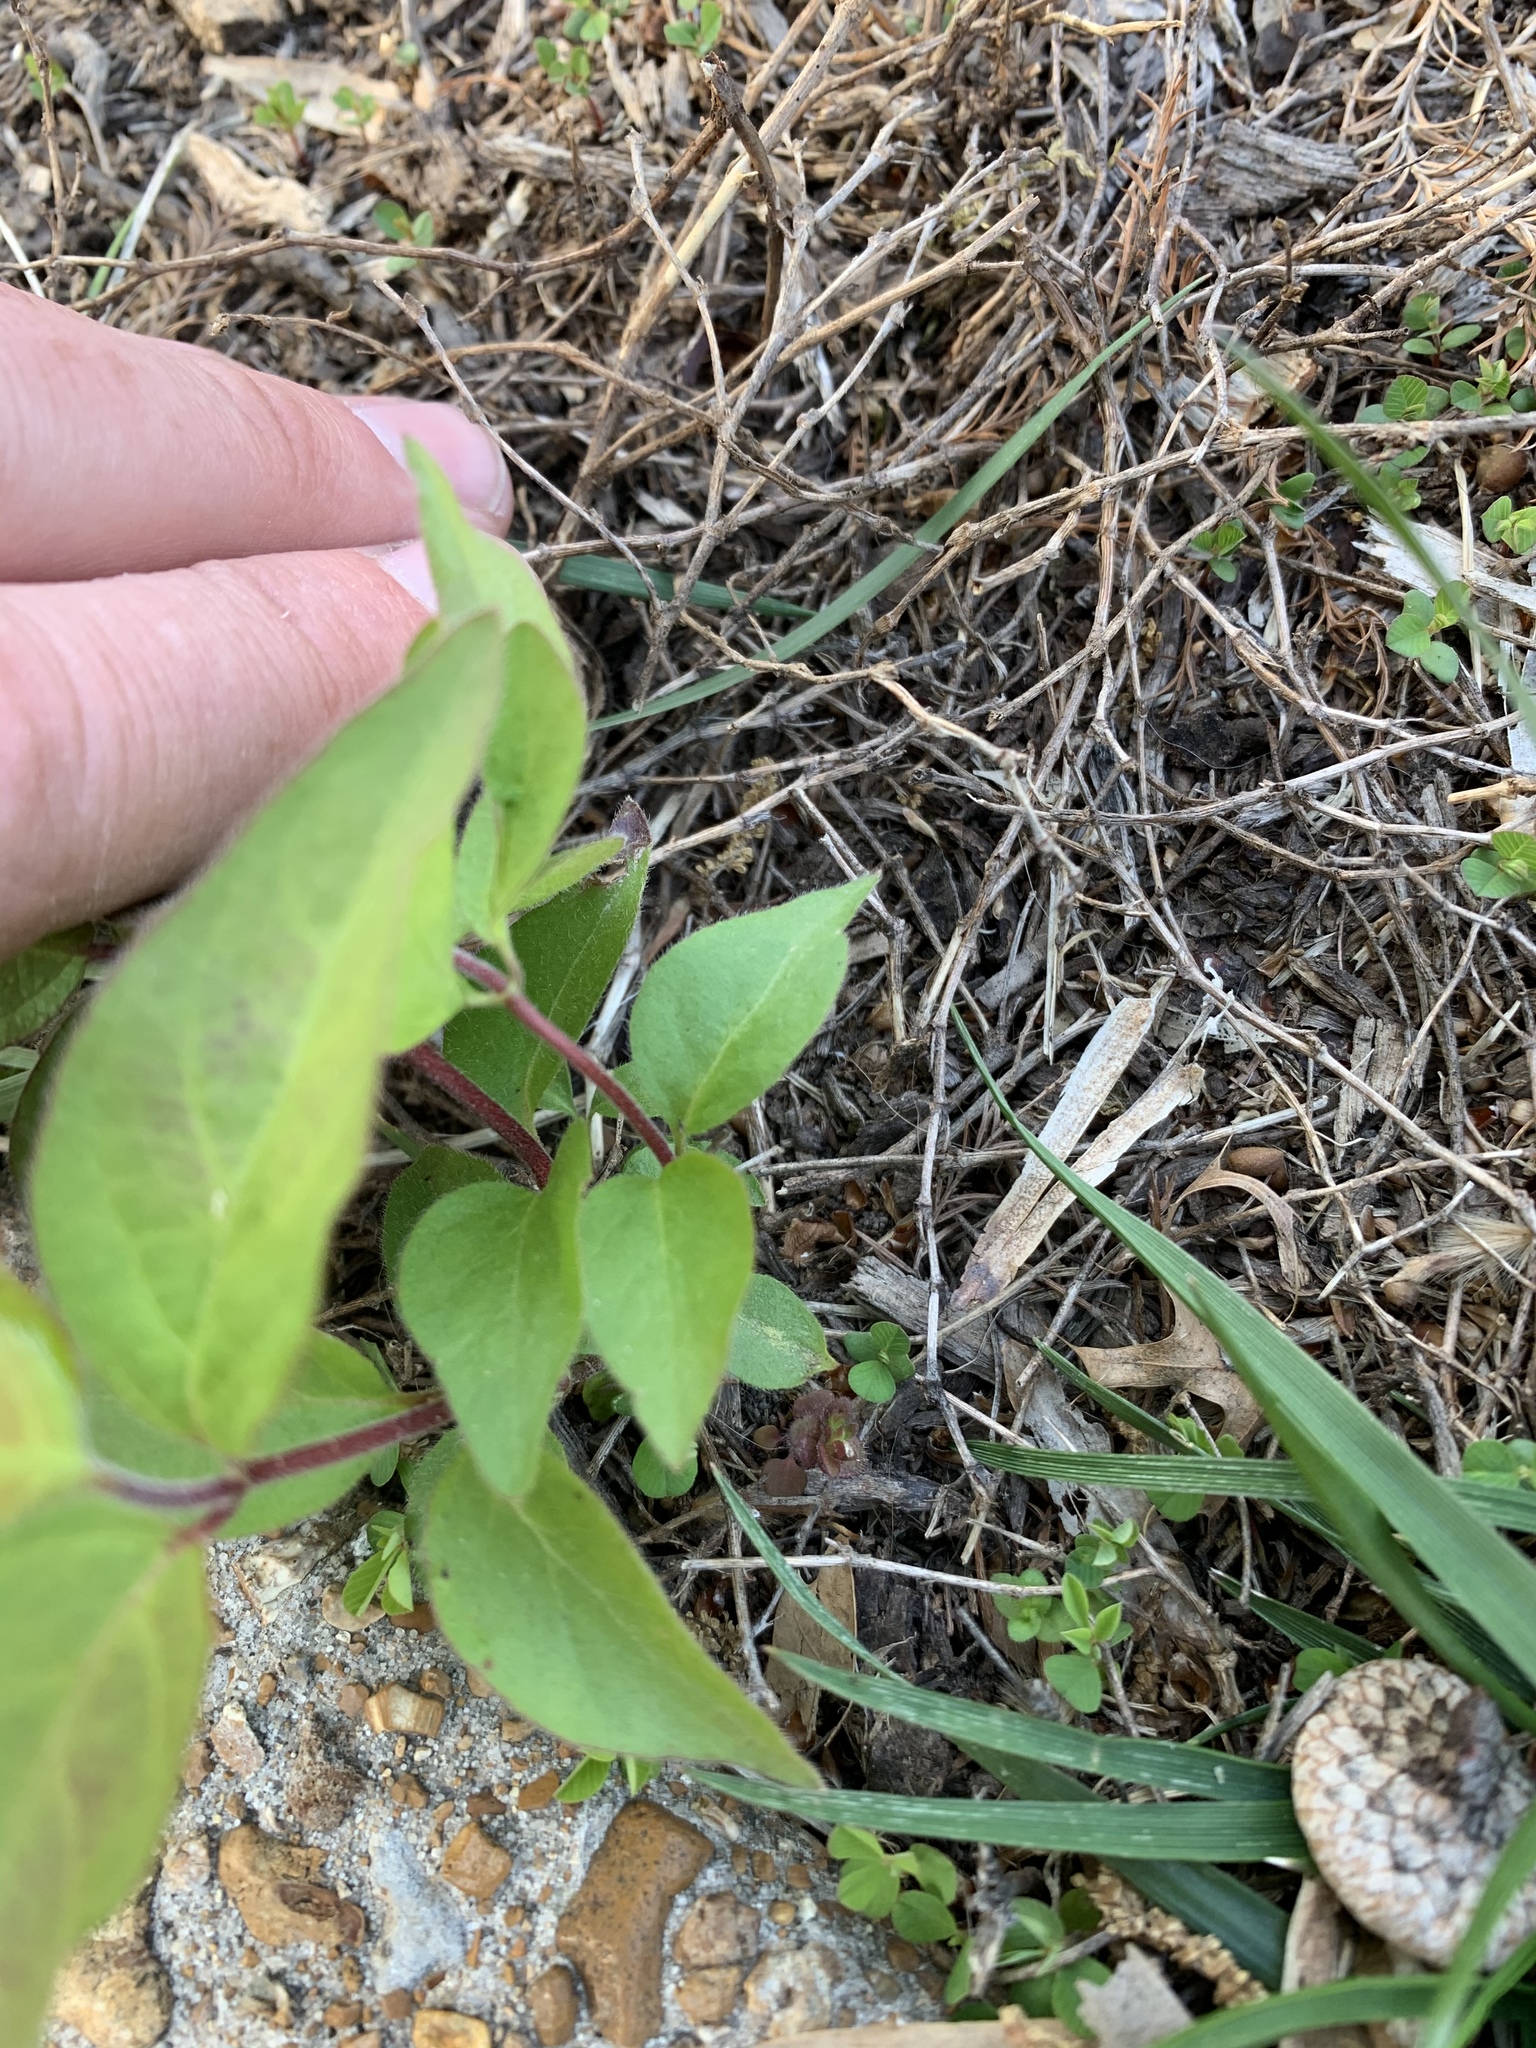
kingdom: Plantae
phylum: Tracheophyta
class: Magnoliopsida
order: Dipsacales
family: Caprifoliaceae
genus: Lonicera
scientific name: Lonicera maackii
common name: Amur honeysuckle
